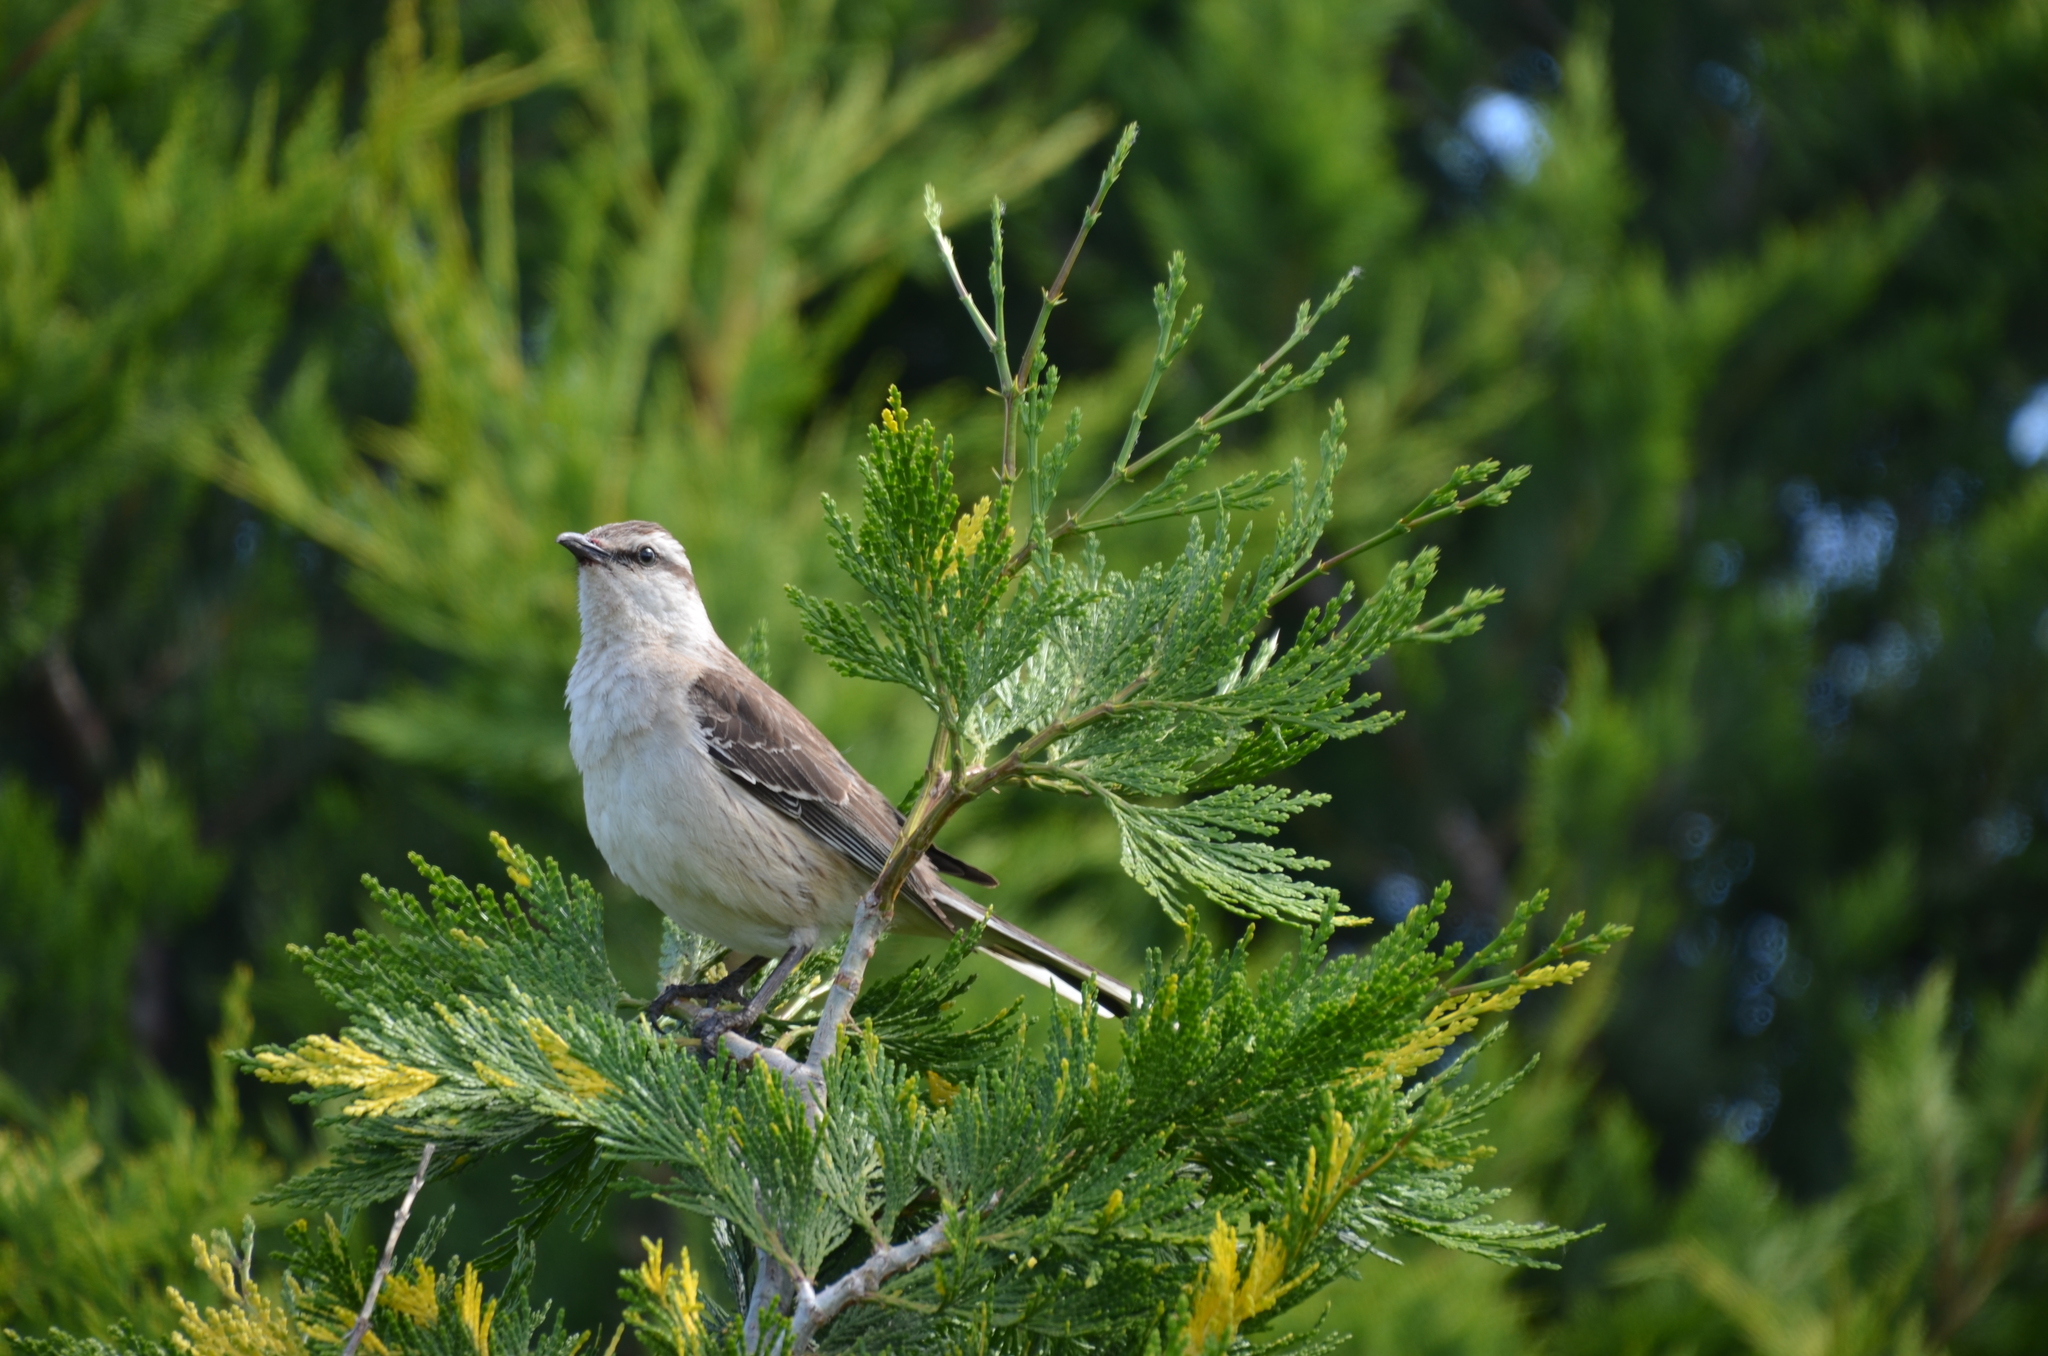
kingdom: Animalia
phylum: Chordata
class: Aves
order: Passeriformes
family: Mimidae
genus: Mimus
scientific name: Mimus saturninus
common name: Chalk-browed mockingbird
